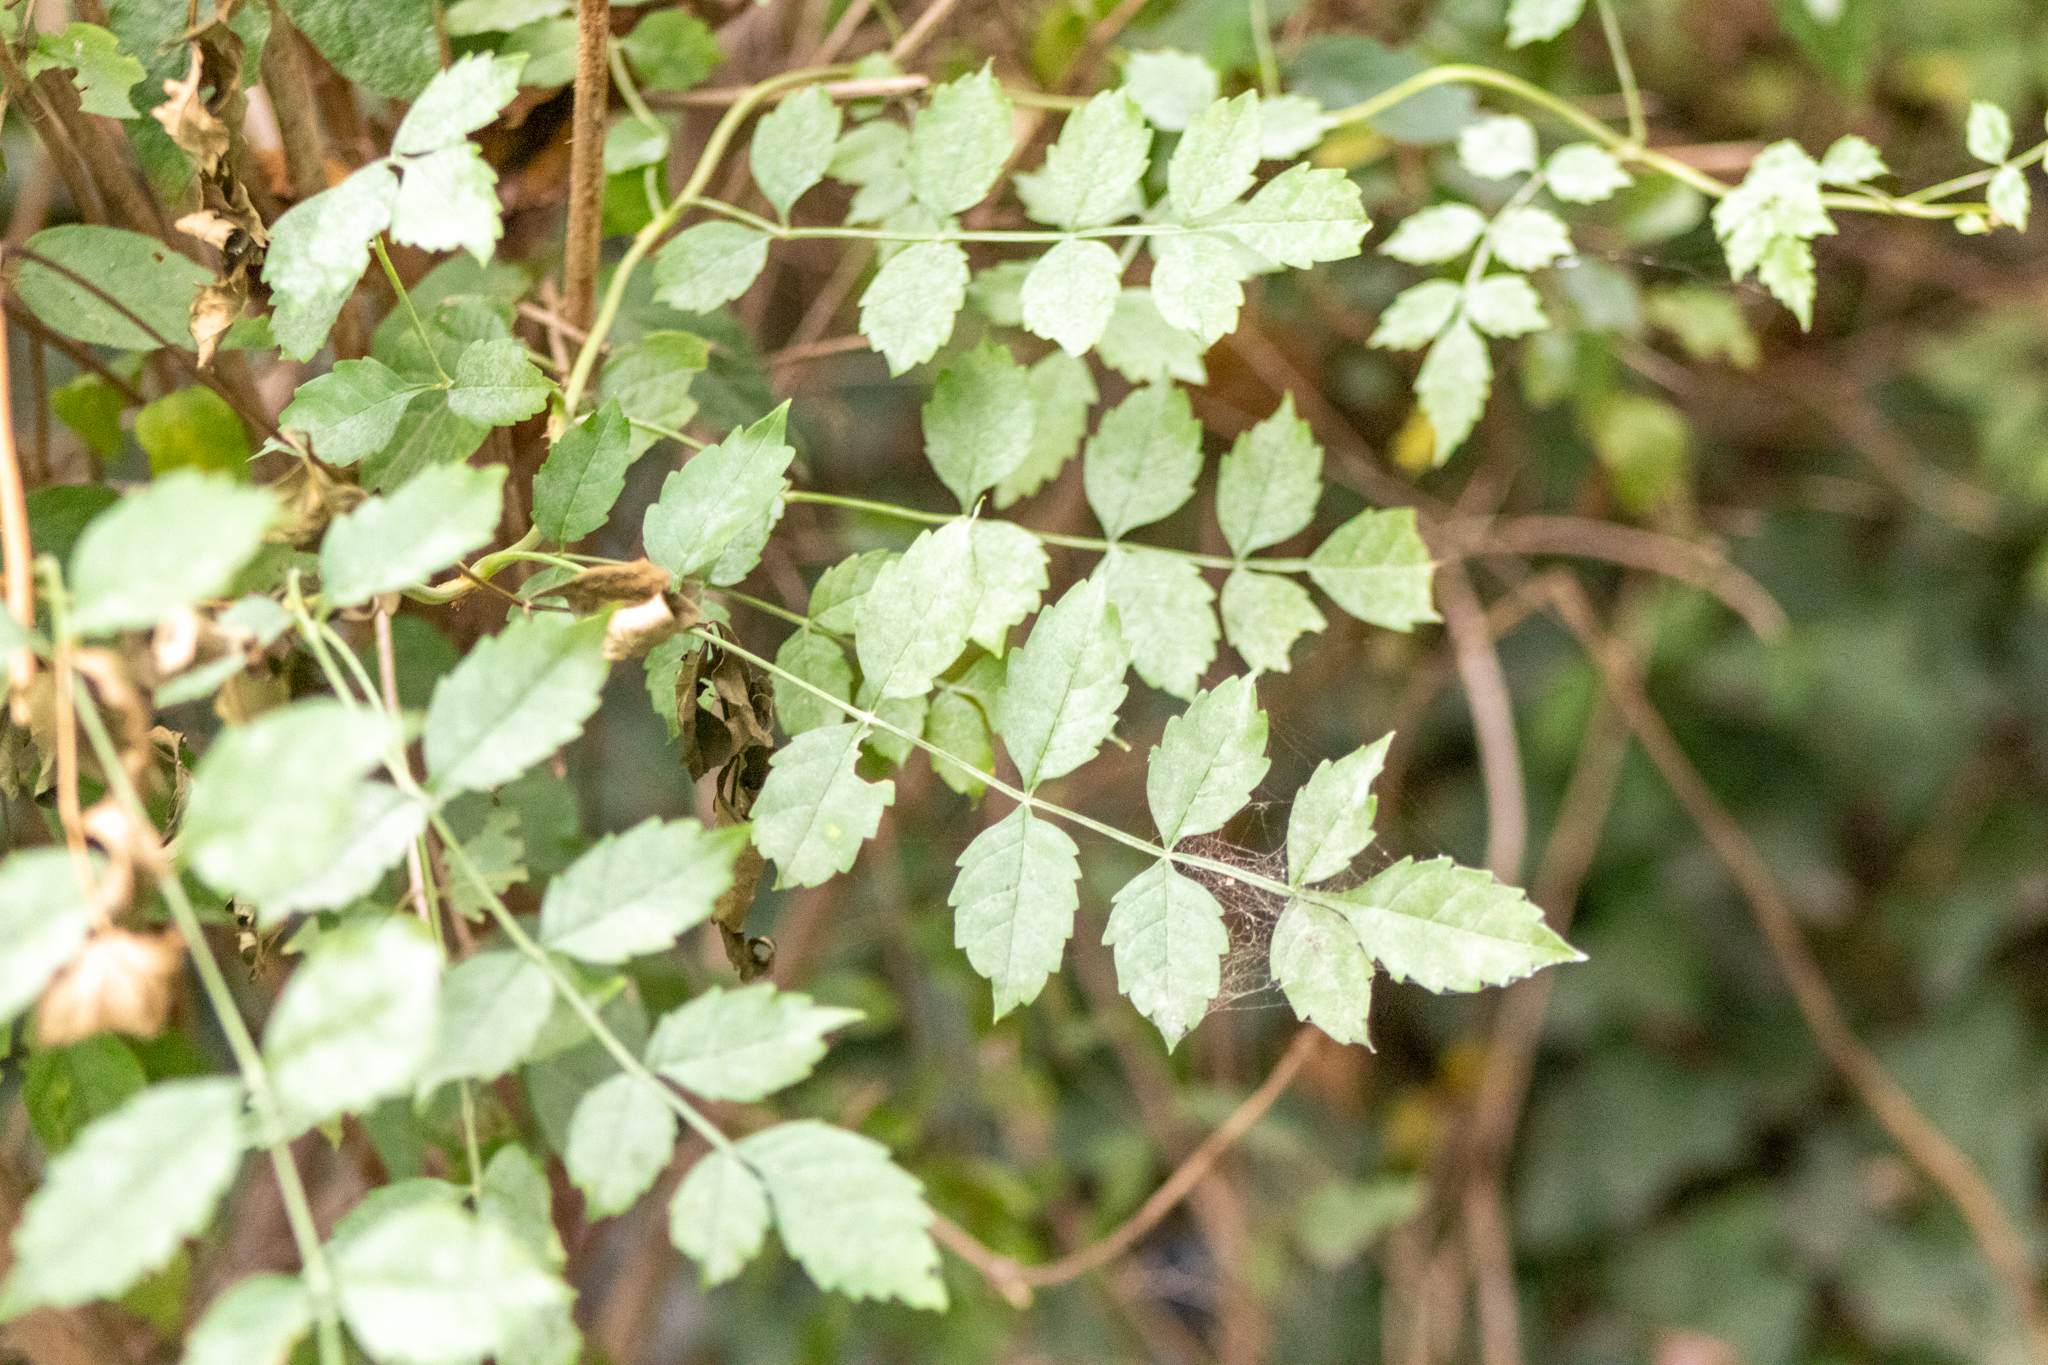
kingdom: Plantae
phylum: Tracheophyta
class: Magnoliopsida
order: Lamiales
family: Bignoniaceae
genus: Campsis
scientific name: Campsis radicans
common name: Trumpet-creeper
